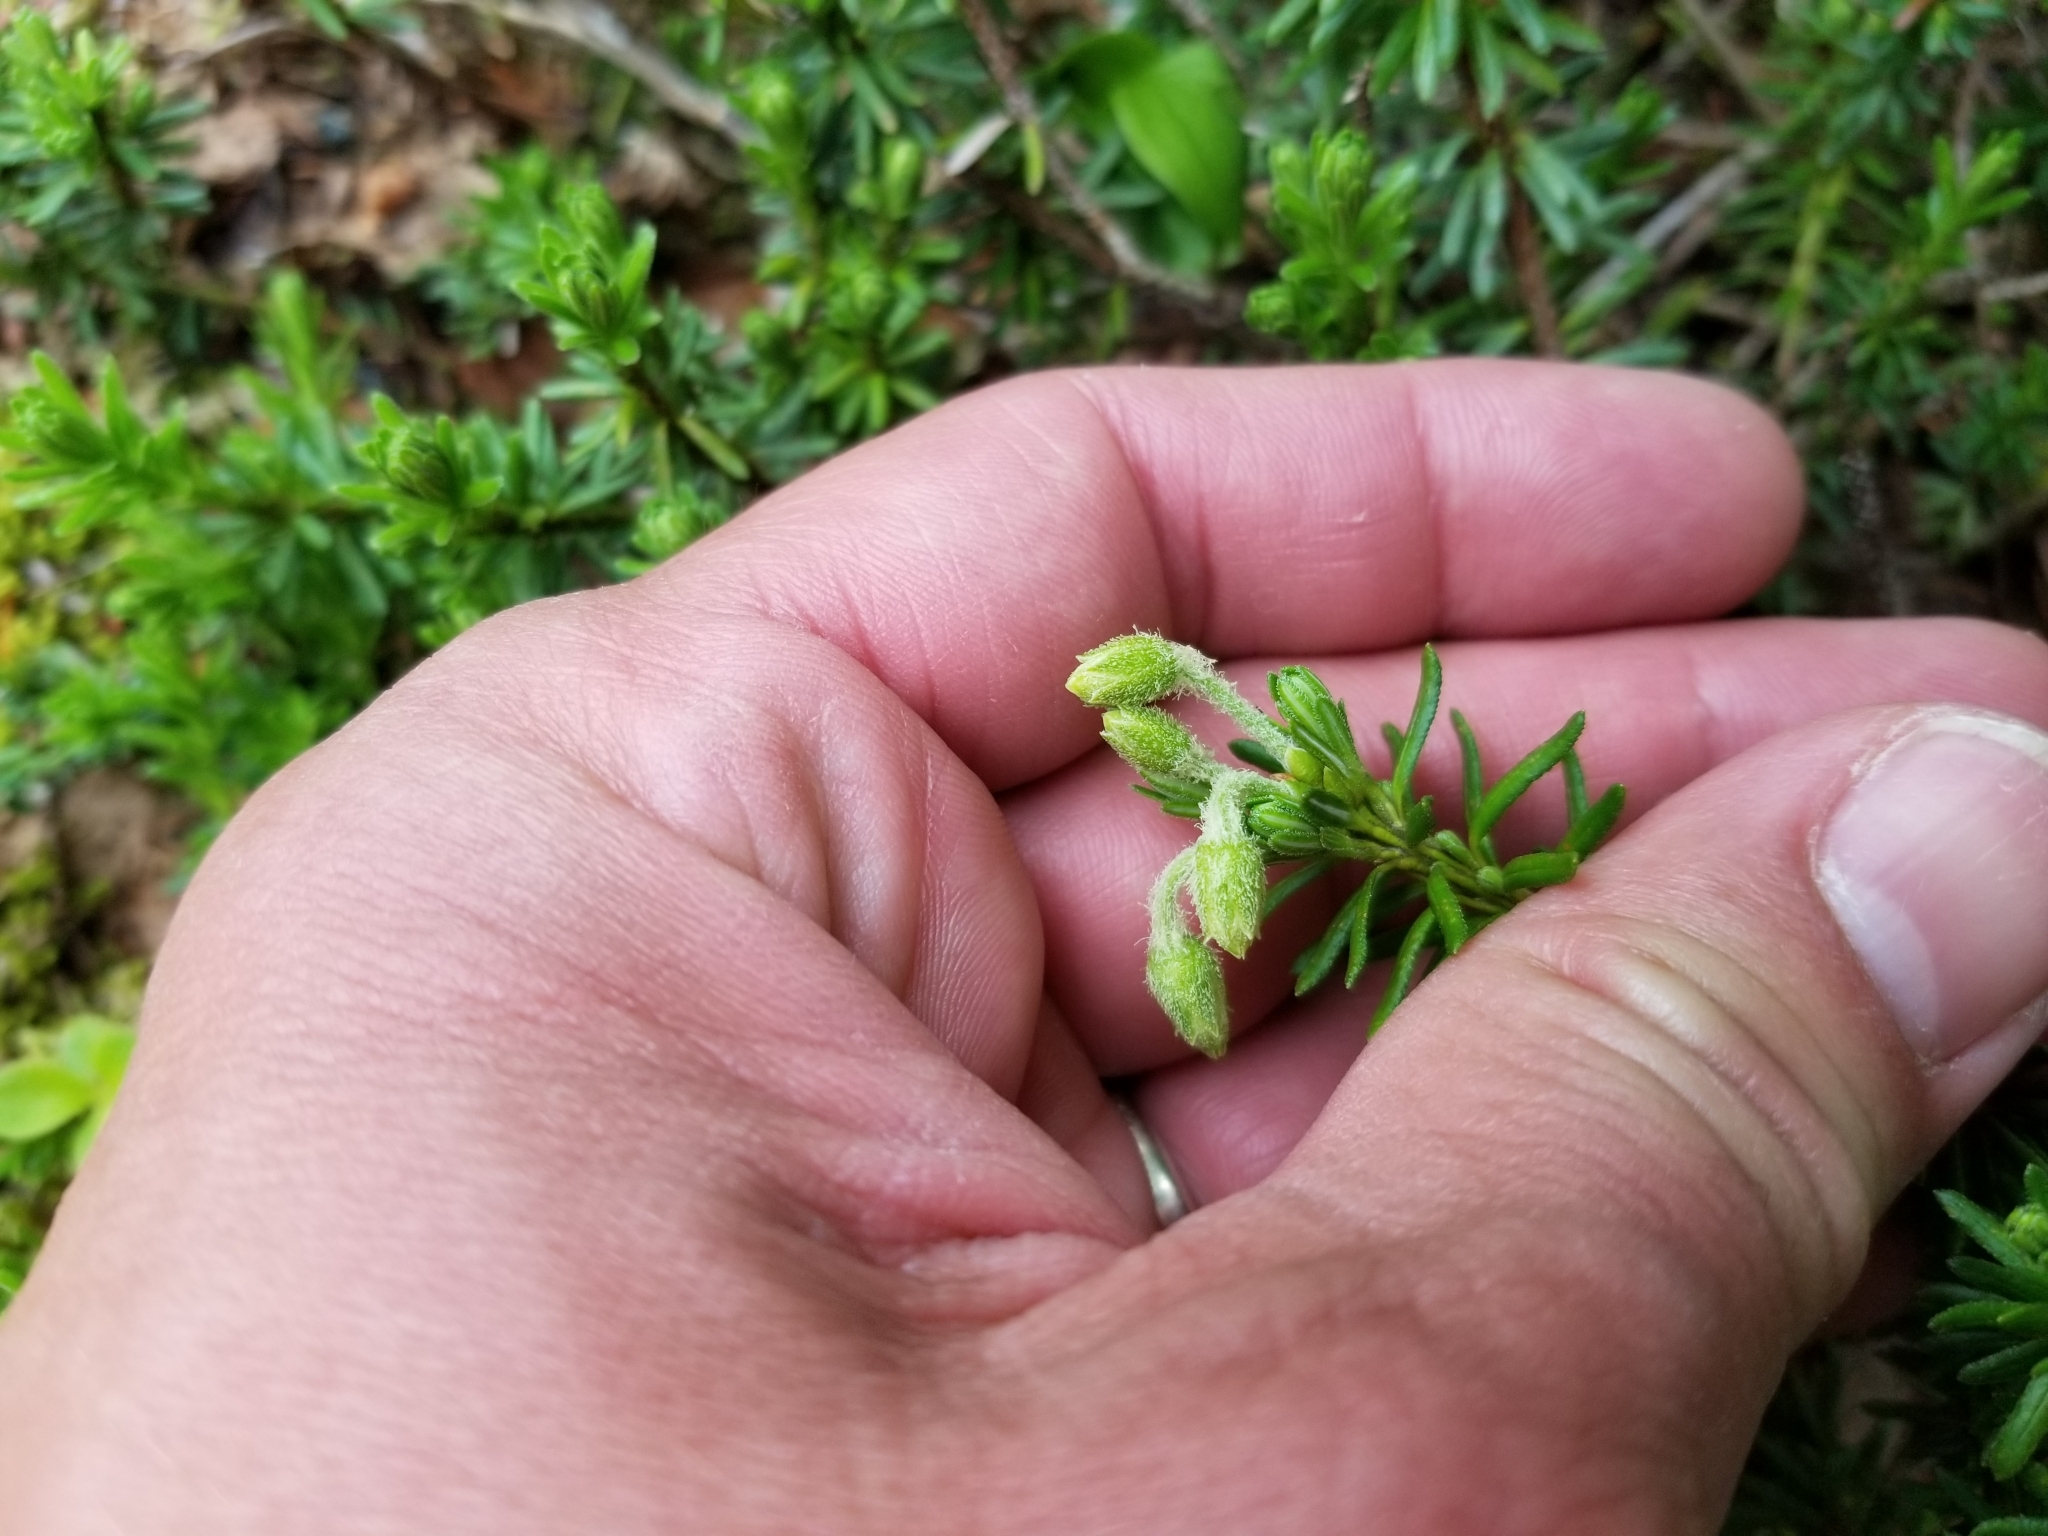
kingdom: Plantae
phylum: Tracheophyta
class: Magnoliopsida
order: Ericales
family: Ericaceae
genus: Phyllodoce
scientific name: Phyllodoce glanduliflora
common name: Cream mountain heather
